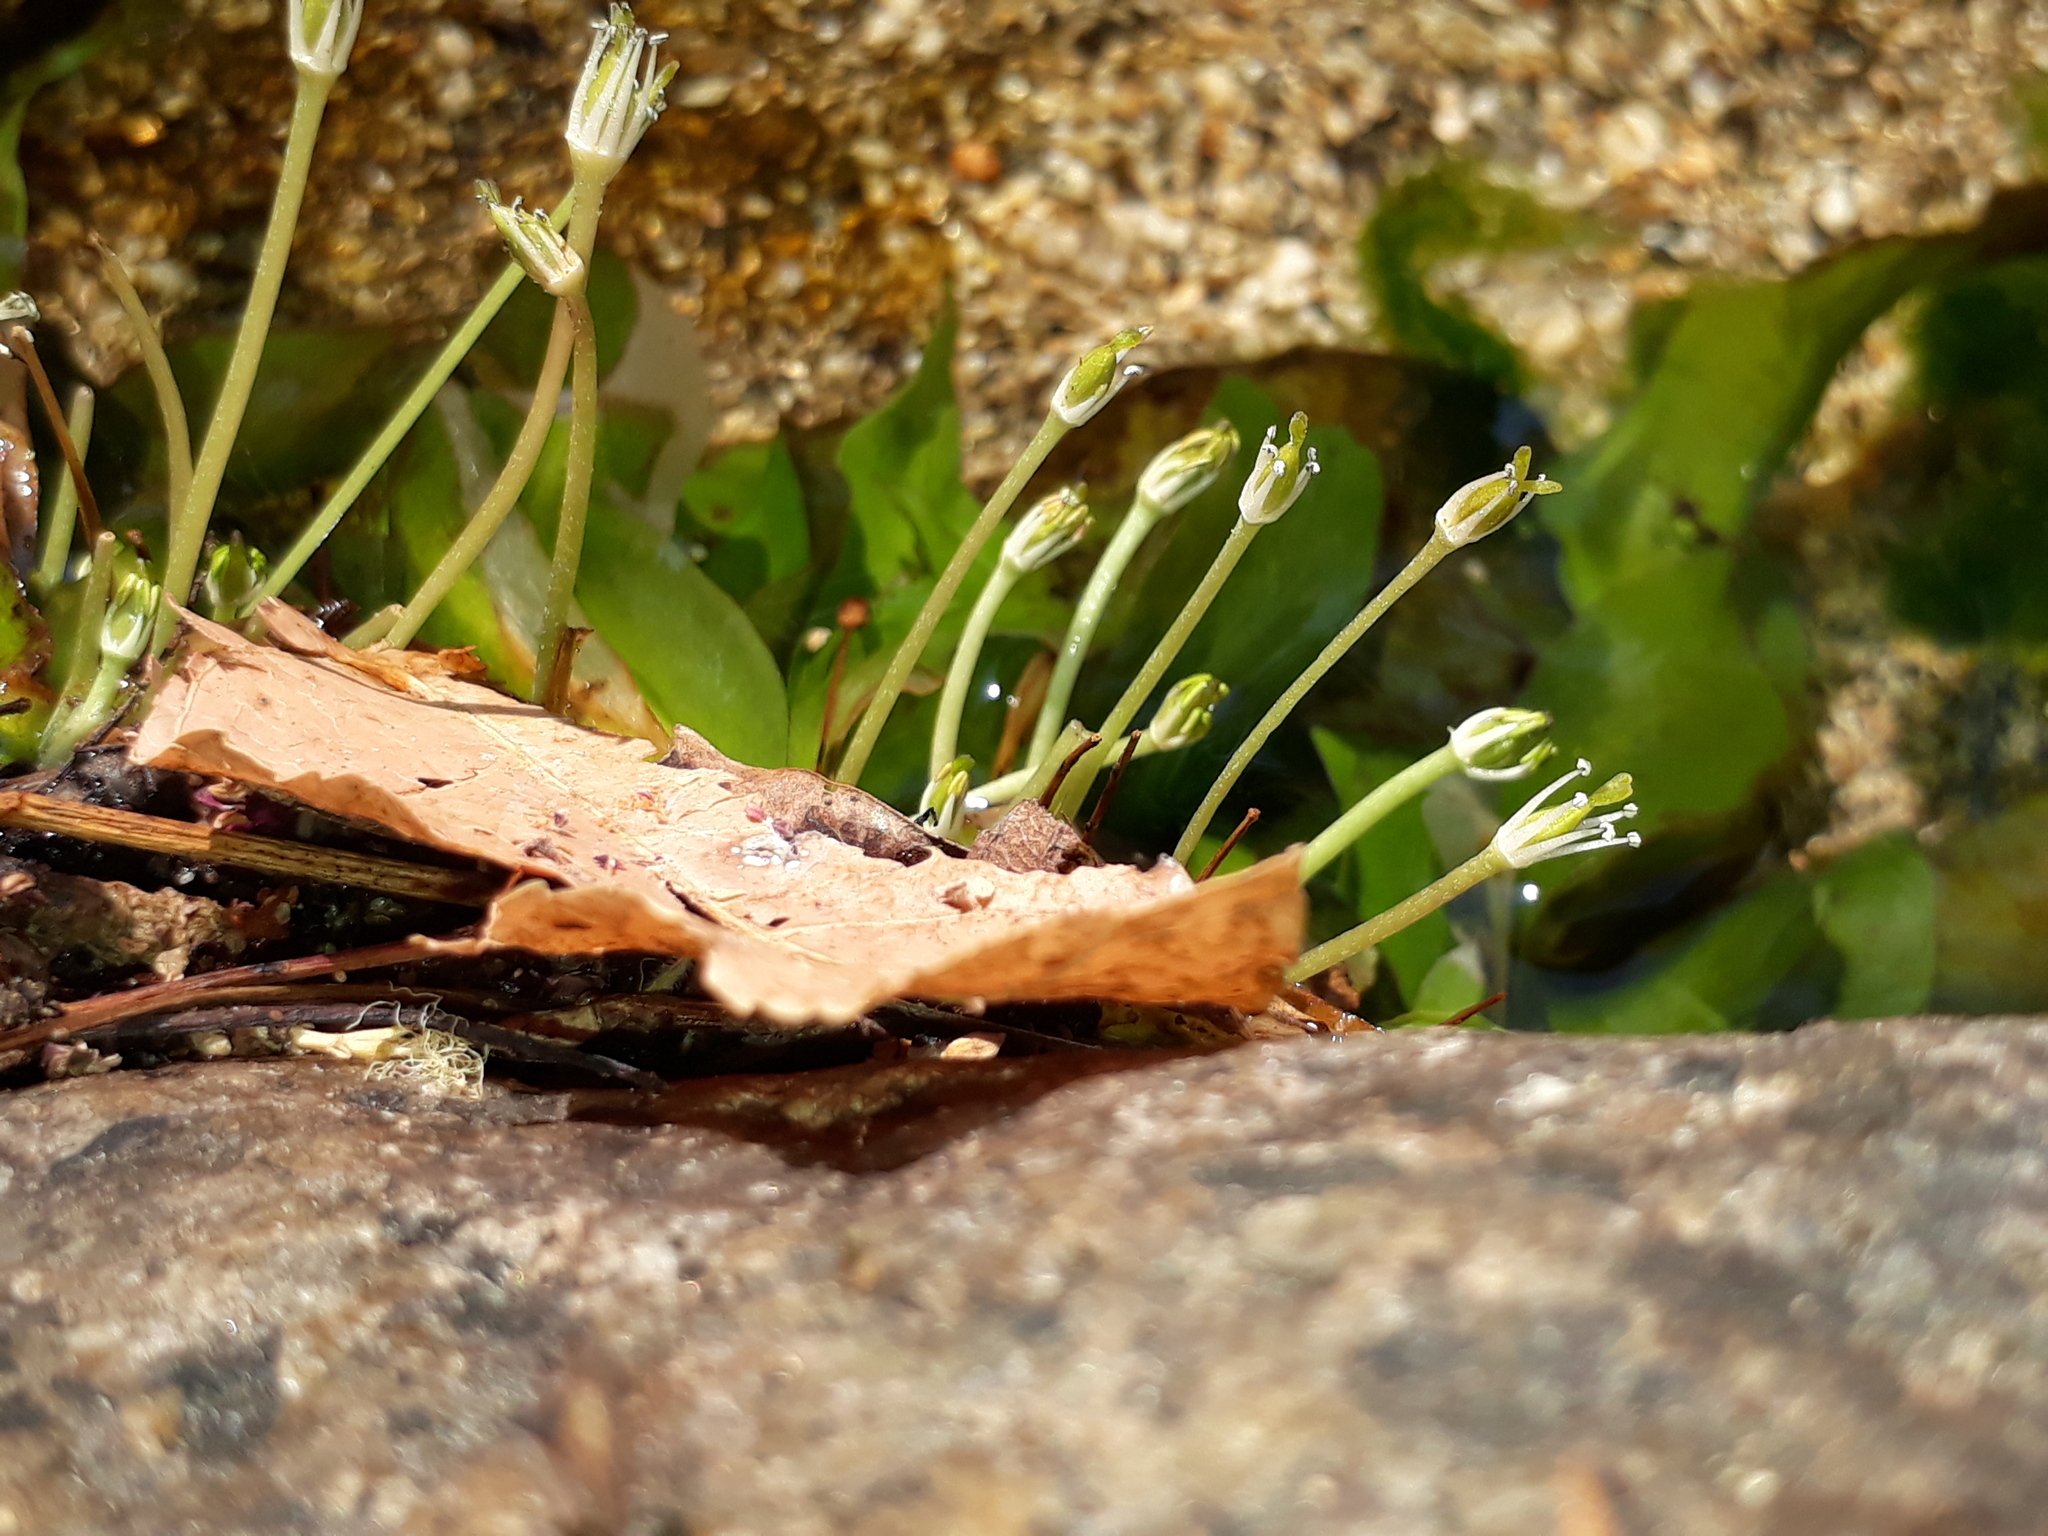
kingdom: Plantae
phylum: Tracheophyta
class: Magnoliopsida
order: Malpighiales
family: Podostemaceae
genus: Marathrum
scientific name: Marathrum utile
